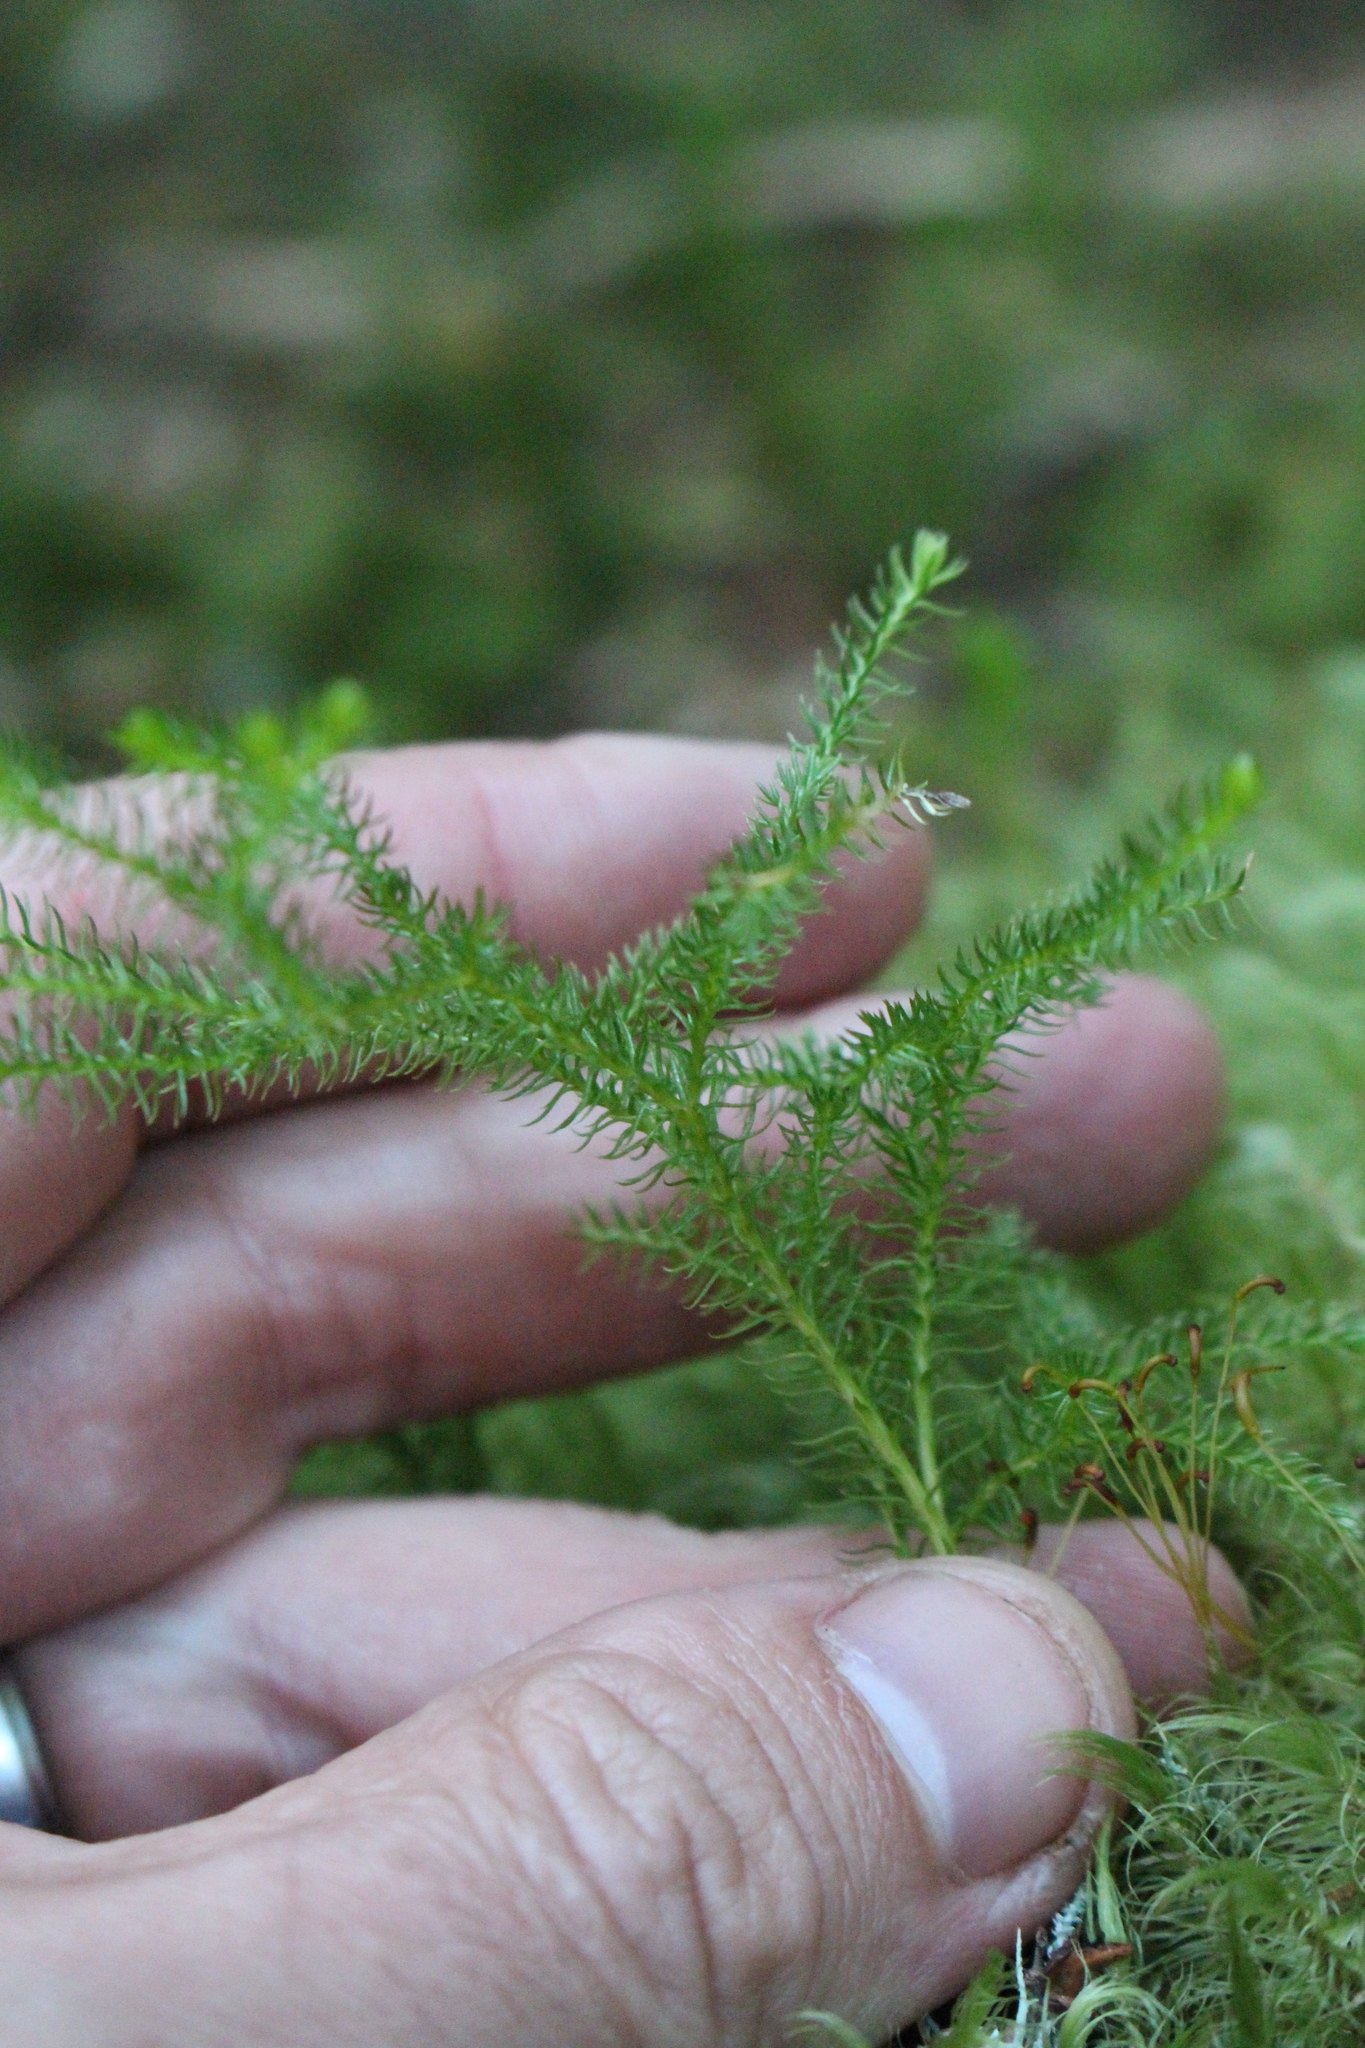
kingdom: Plantae
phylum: Tracheophyta
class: Lycopodiopsida
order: Lycopodiales
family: Lycopodiaceae
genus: Austrolycopodium
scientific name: Austrolycopodium fastigiatum
